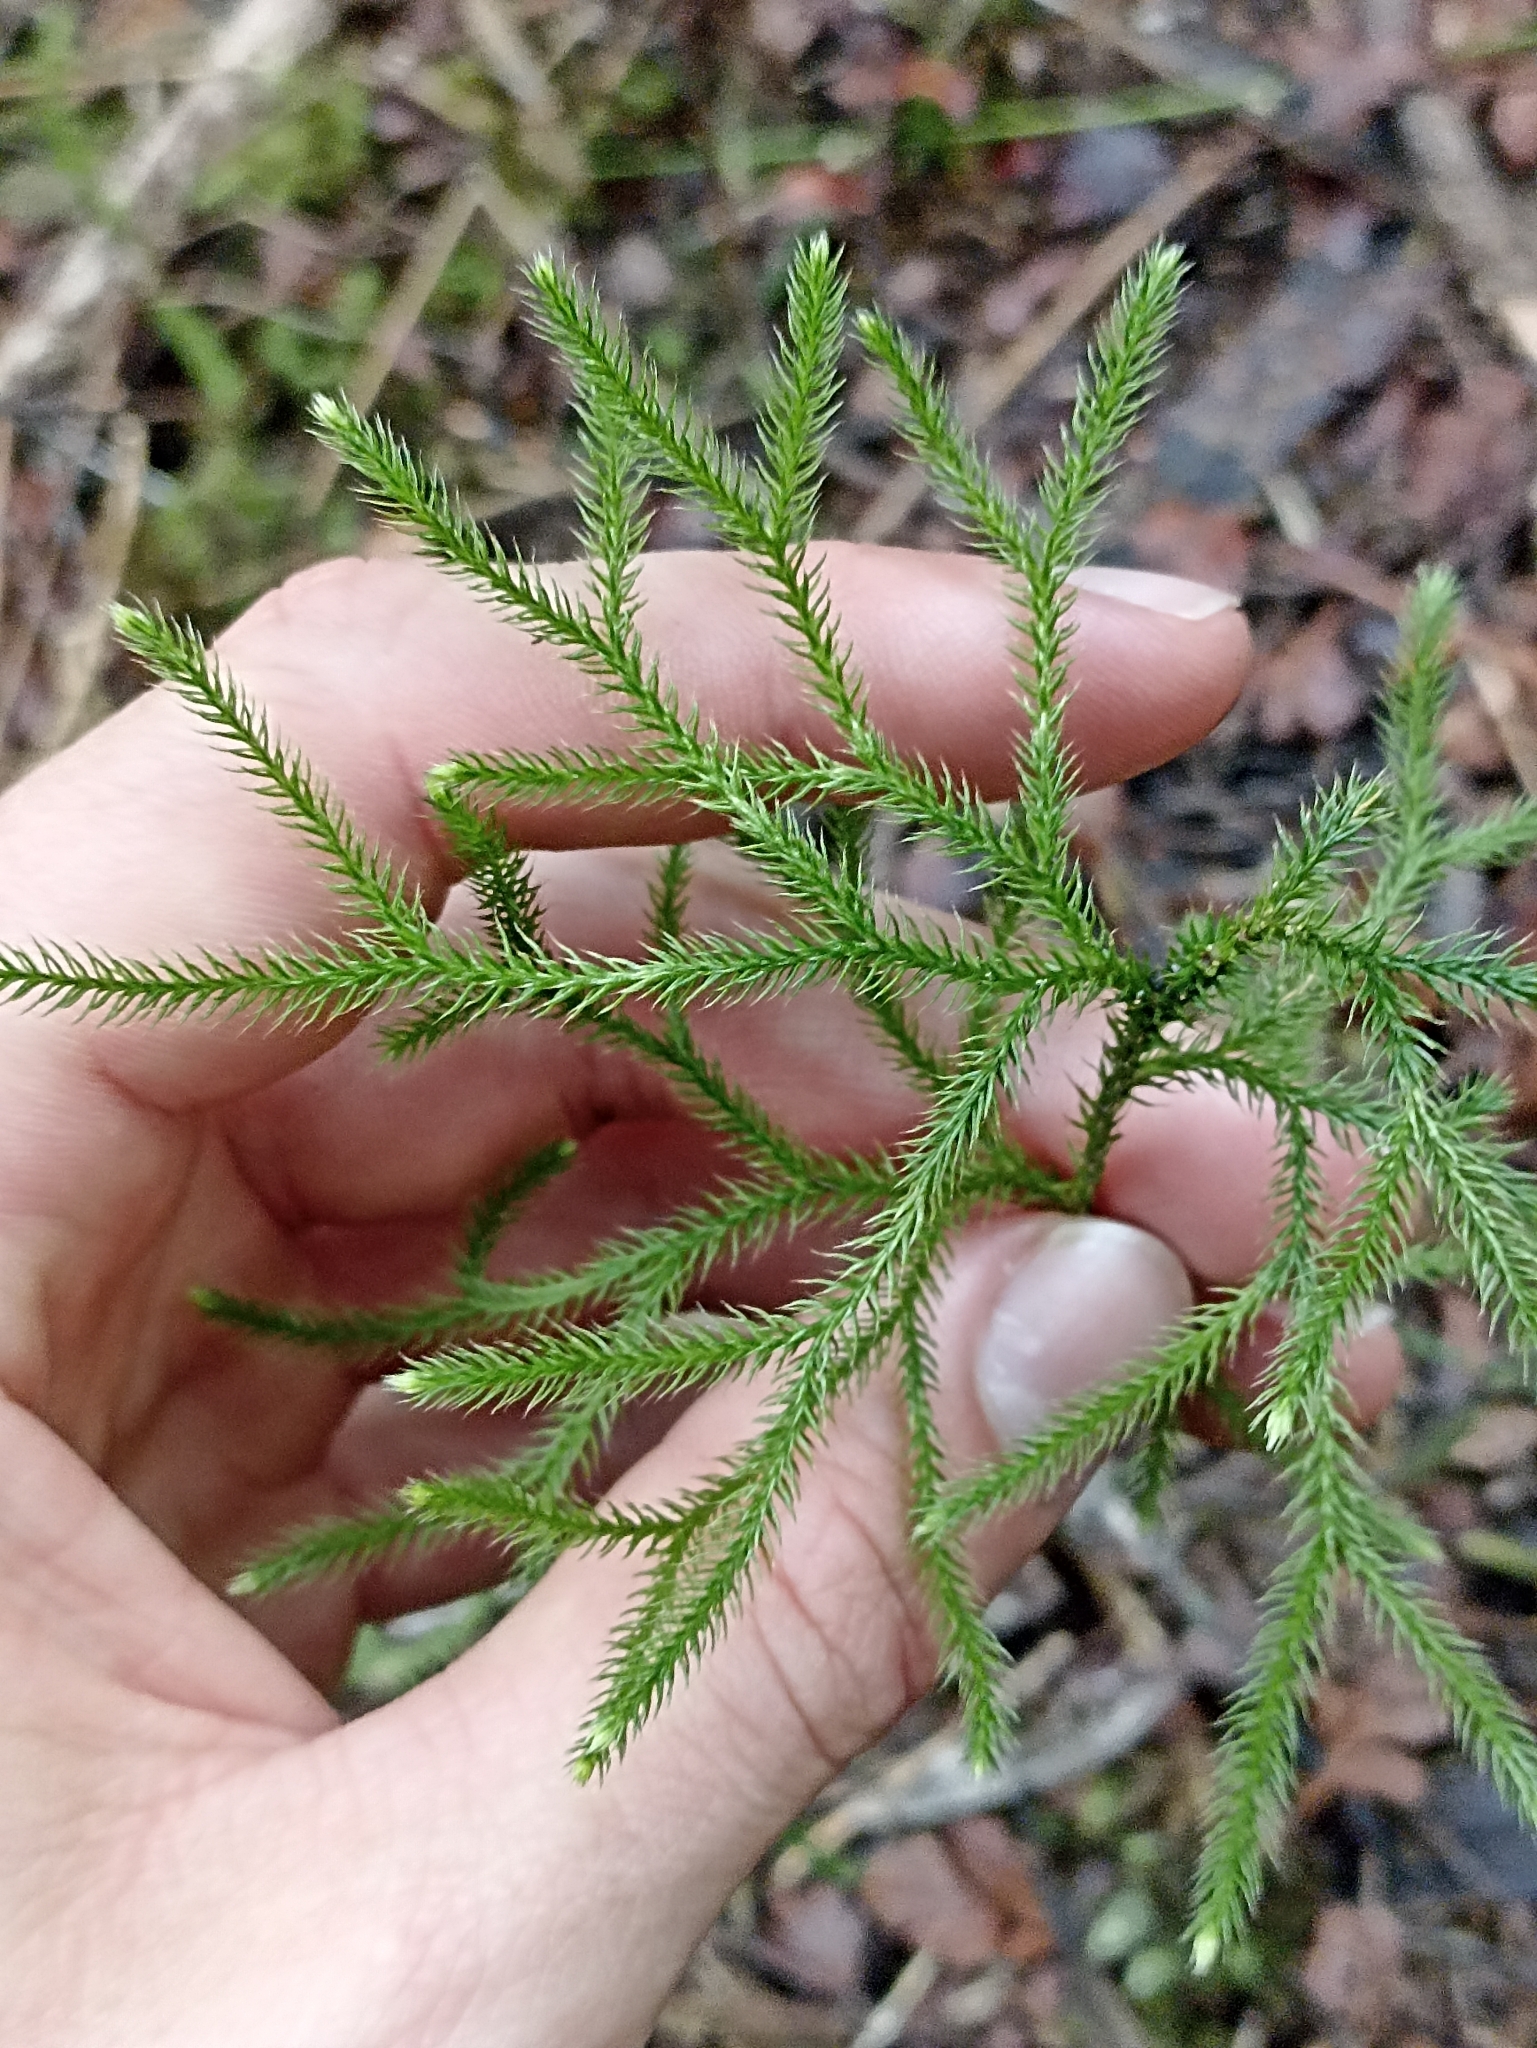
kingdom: Plantae
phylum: Tracheophyta
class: Lycopodiopsida
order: Lycopodiales
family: Lycopodiaceae
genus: Pseudolycopodium
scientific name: Pseudolycopodium densum
